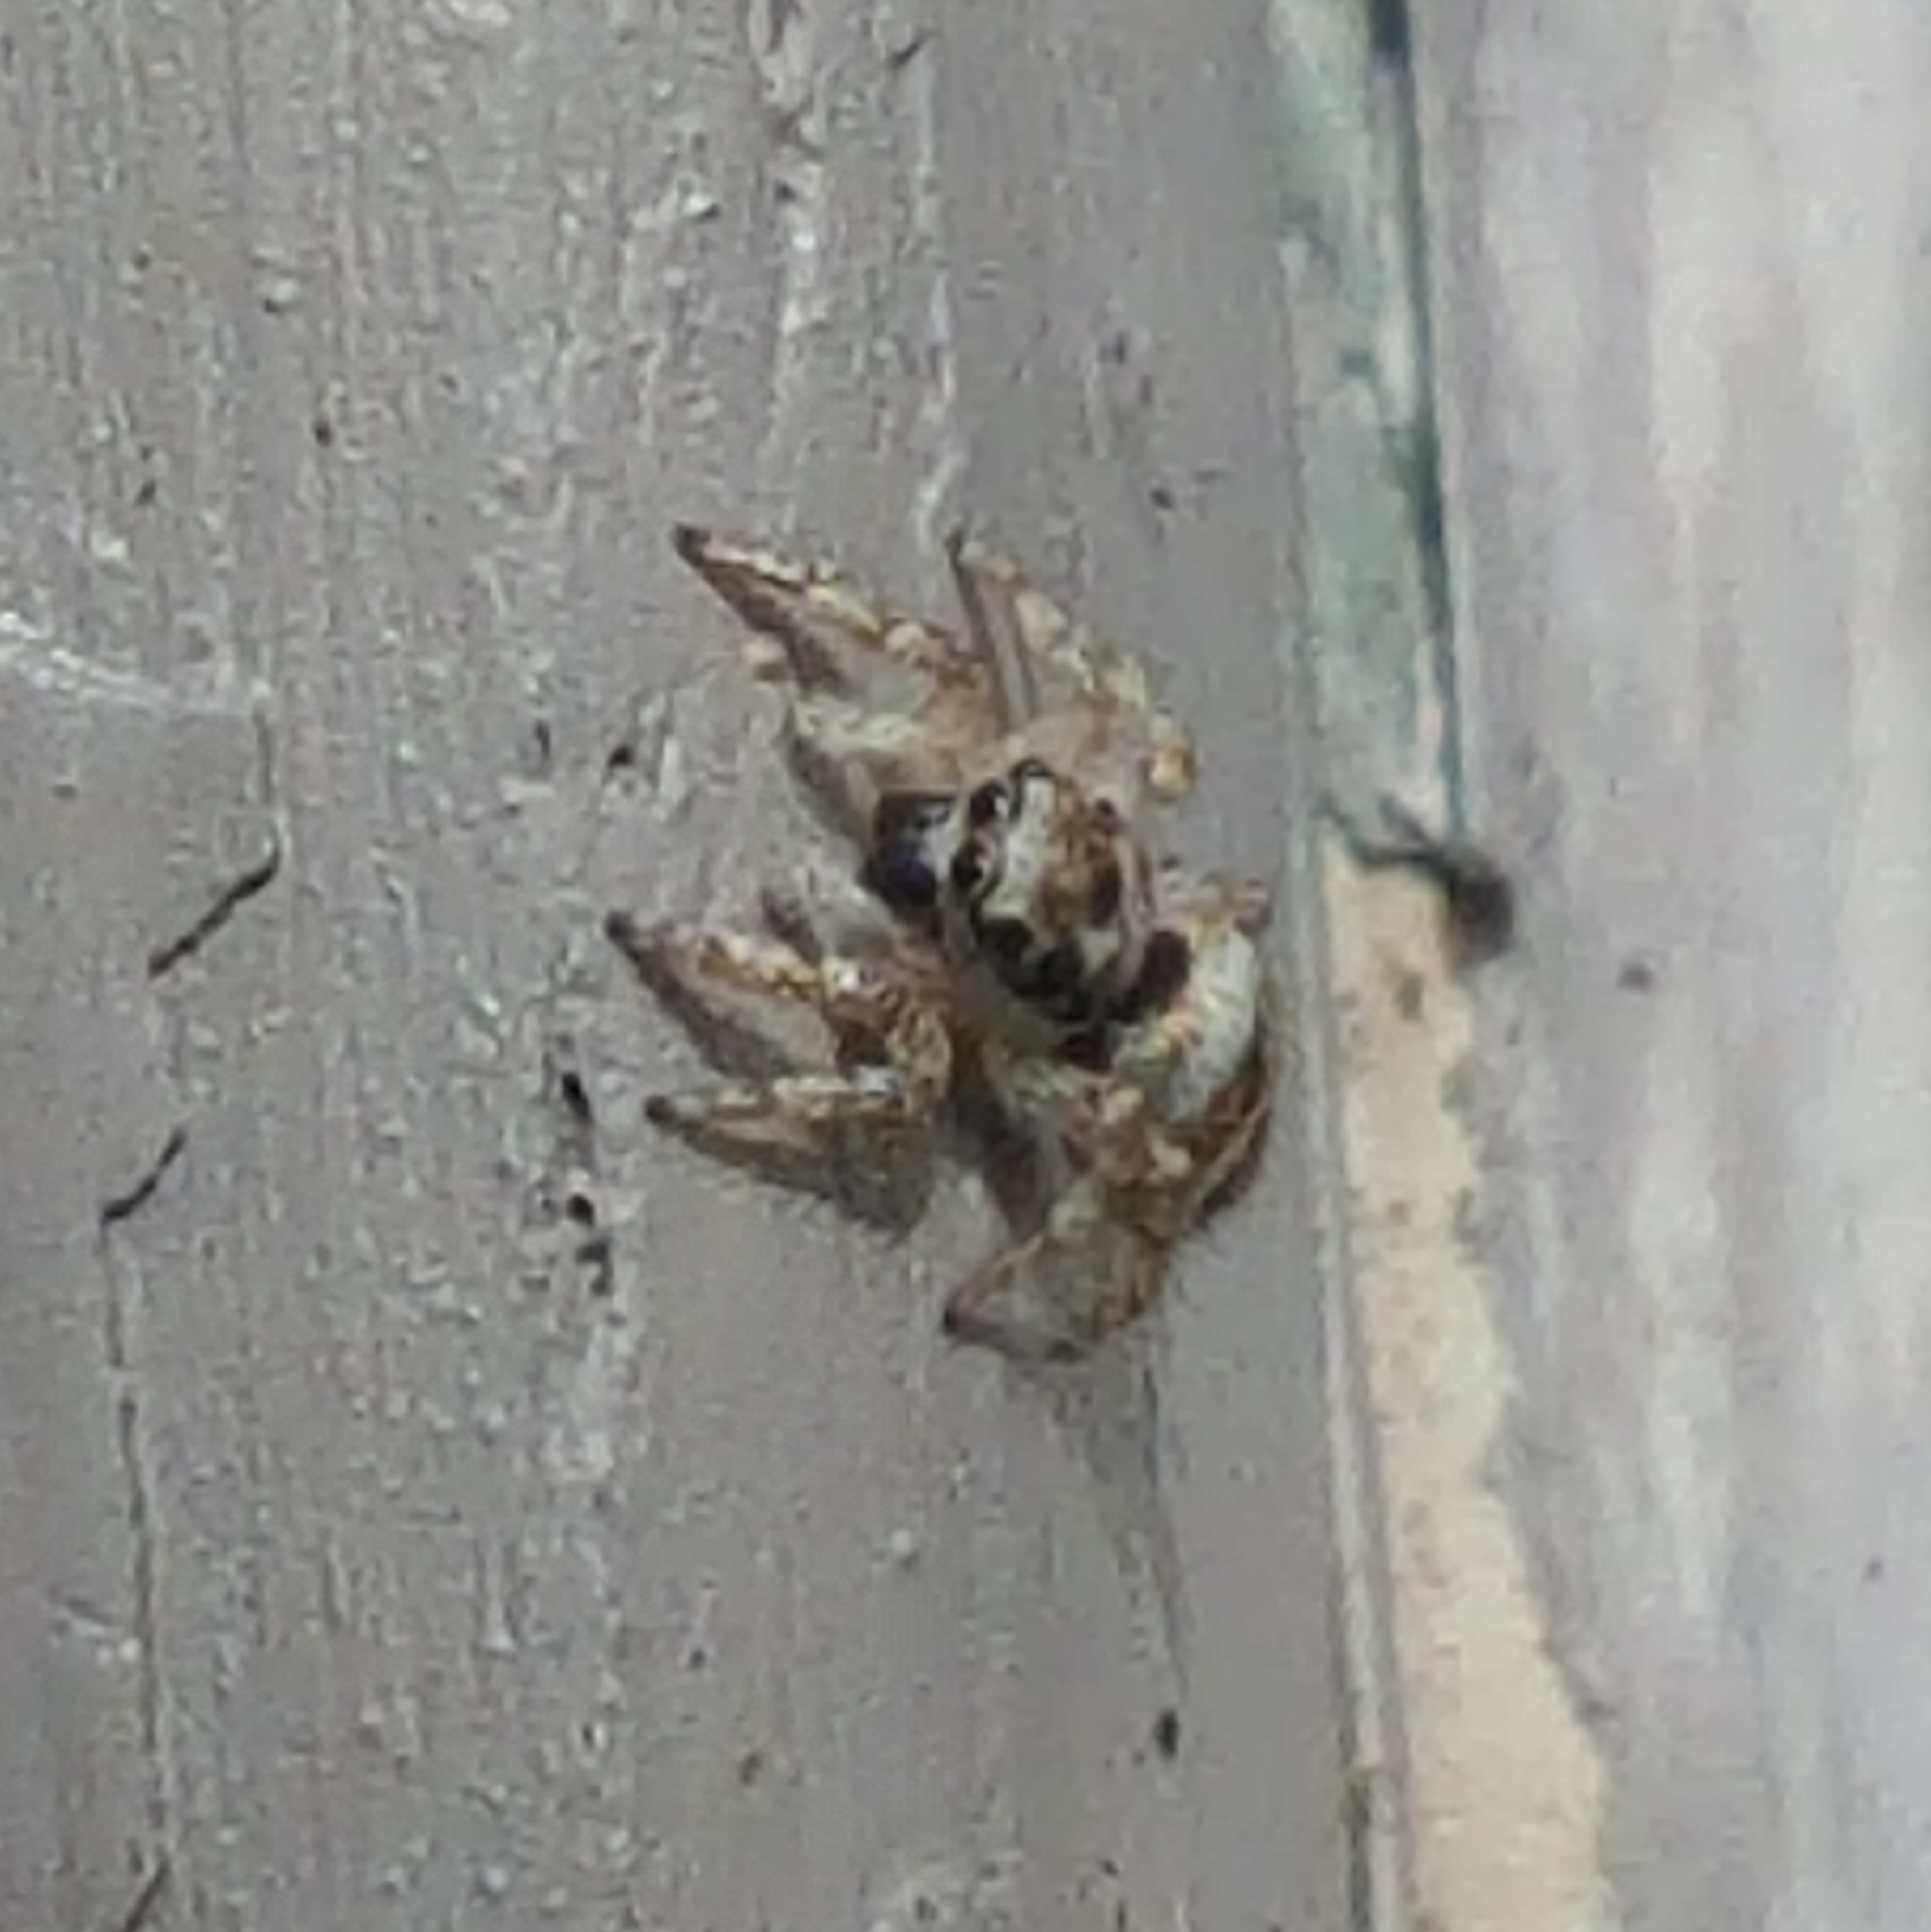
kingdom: Animalia
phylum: Arthropoda
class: Arachnida
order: Araneae
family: Salticidae
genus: Salticus
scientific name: Salticus scenicus
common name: Zebra jumper
